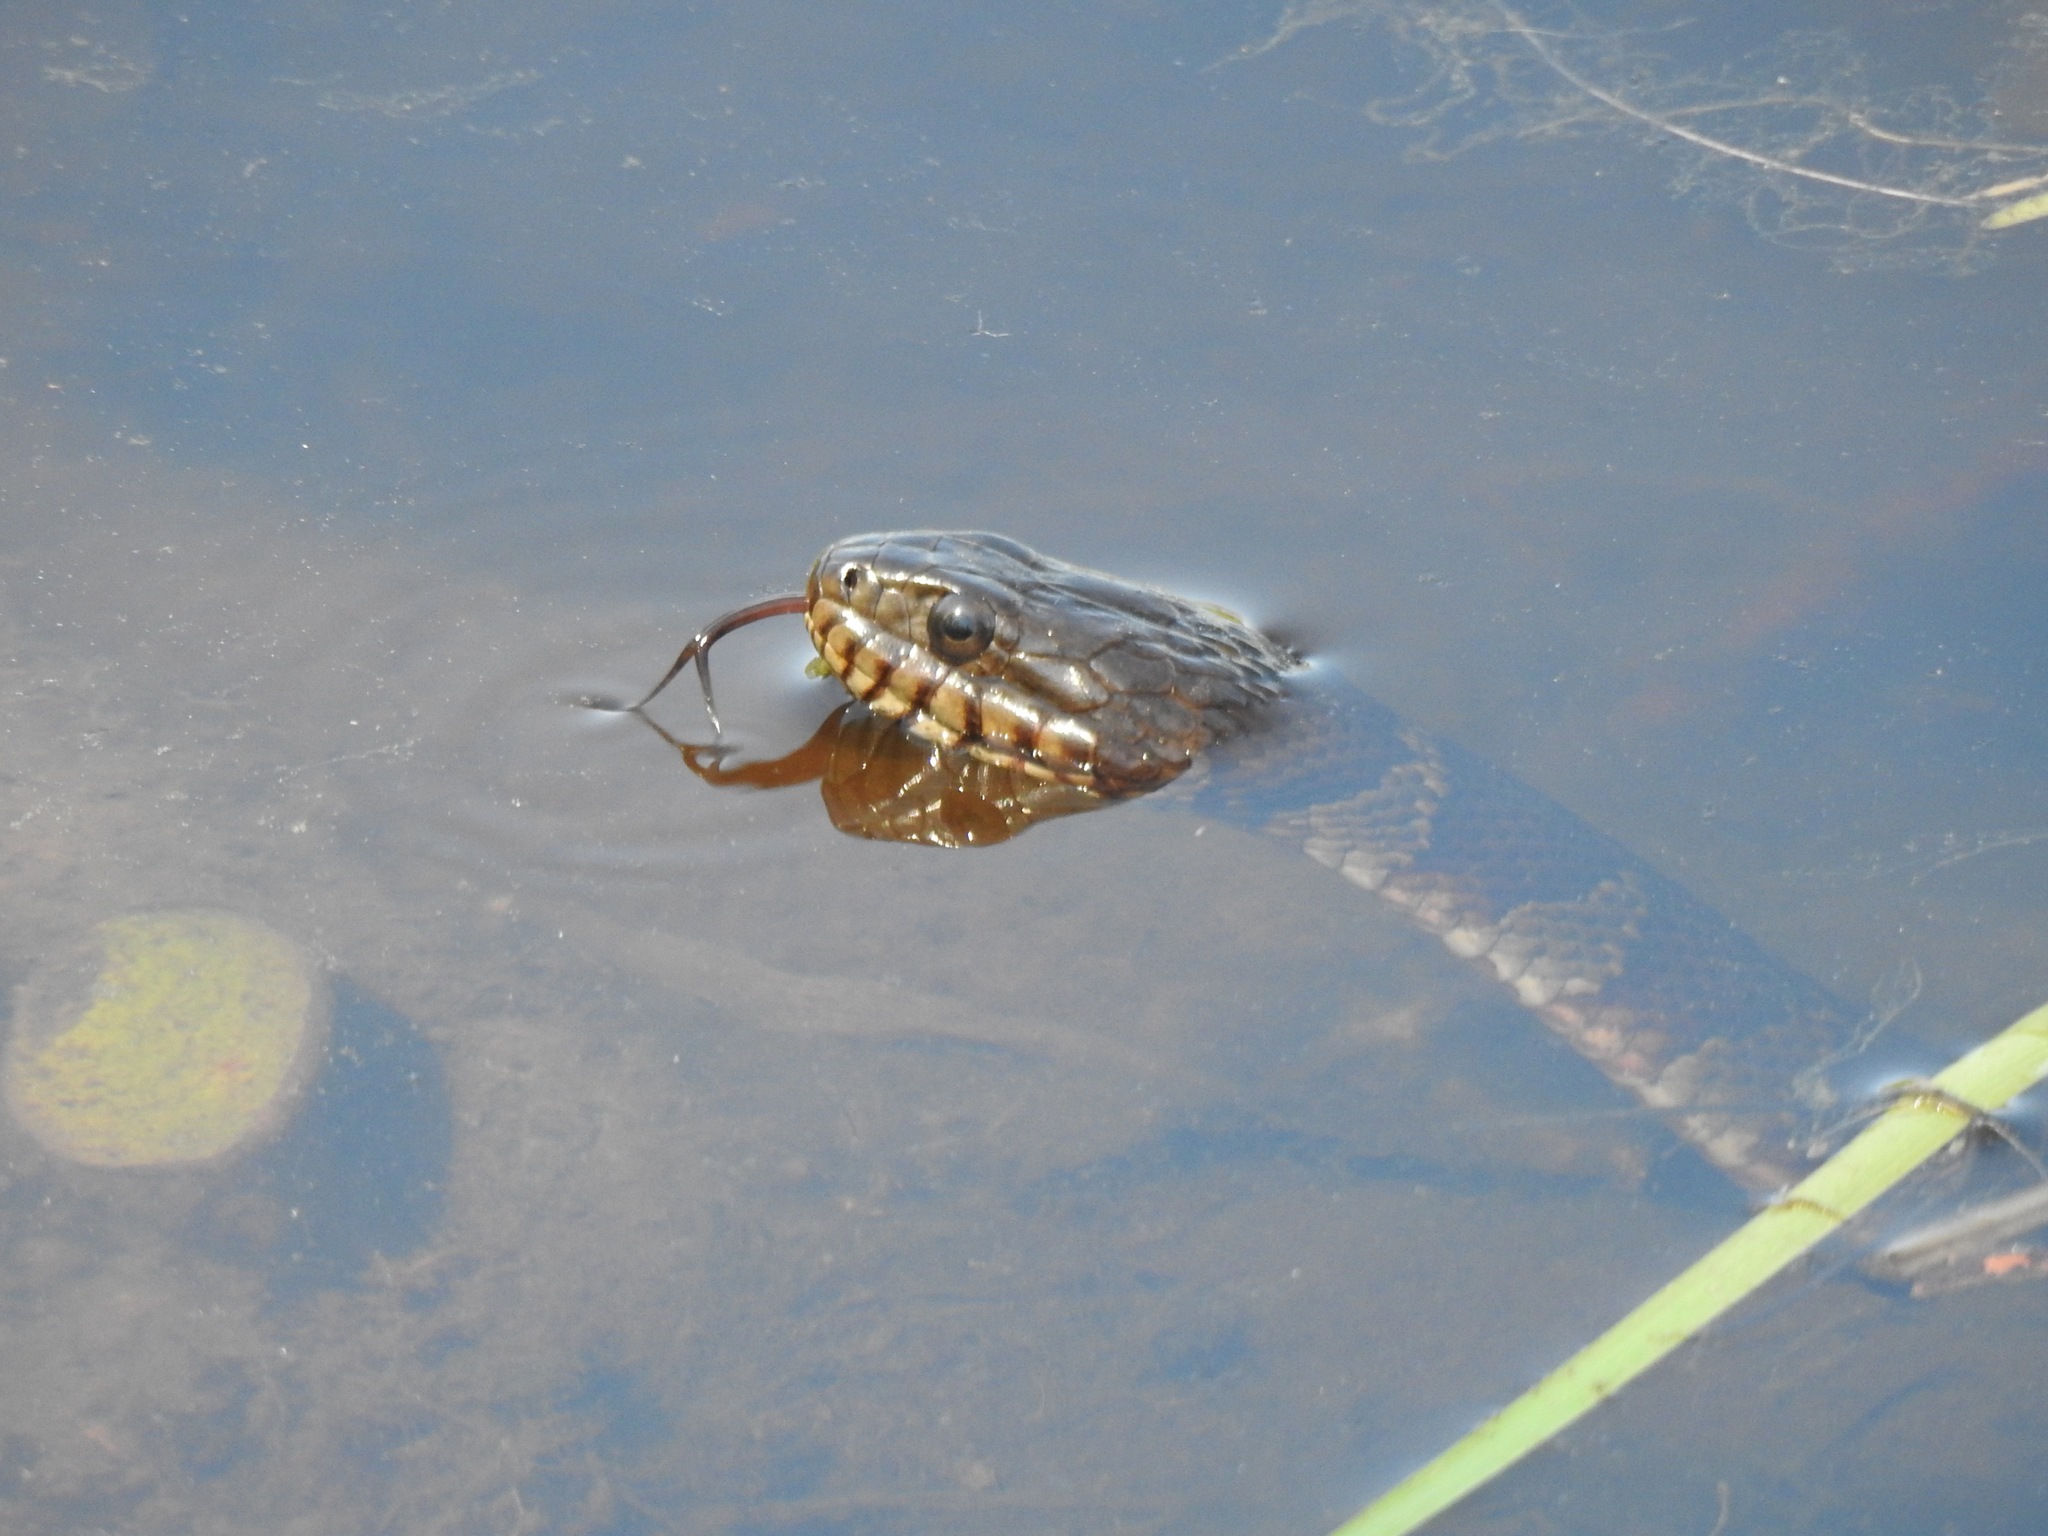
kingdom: Animalia
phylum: Chordata
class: Squamata
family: Colubridae
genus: Nerodia
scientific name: Nerodia sipedon
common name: Northern water snake
